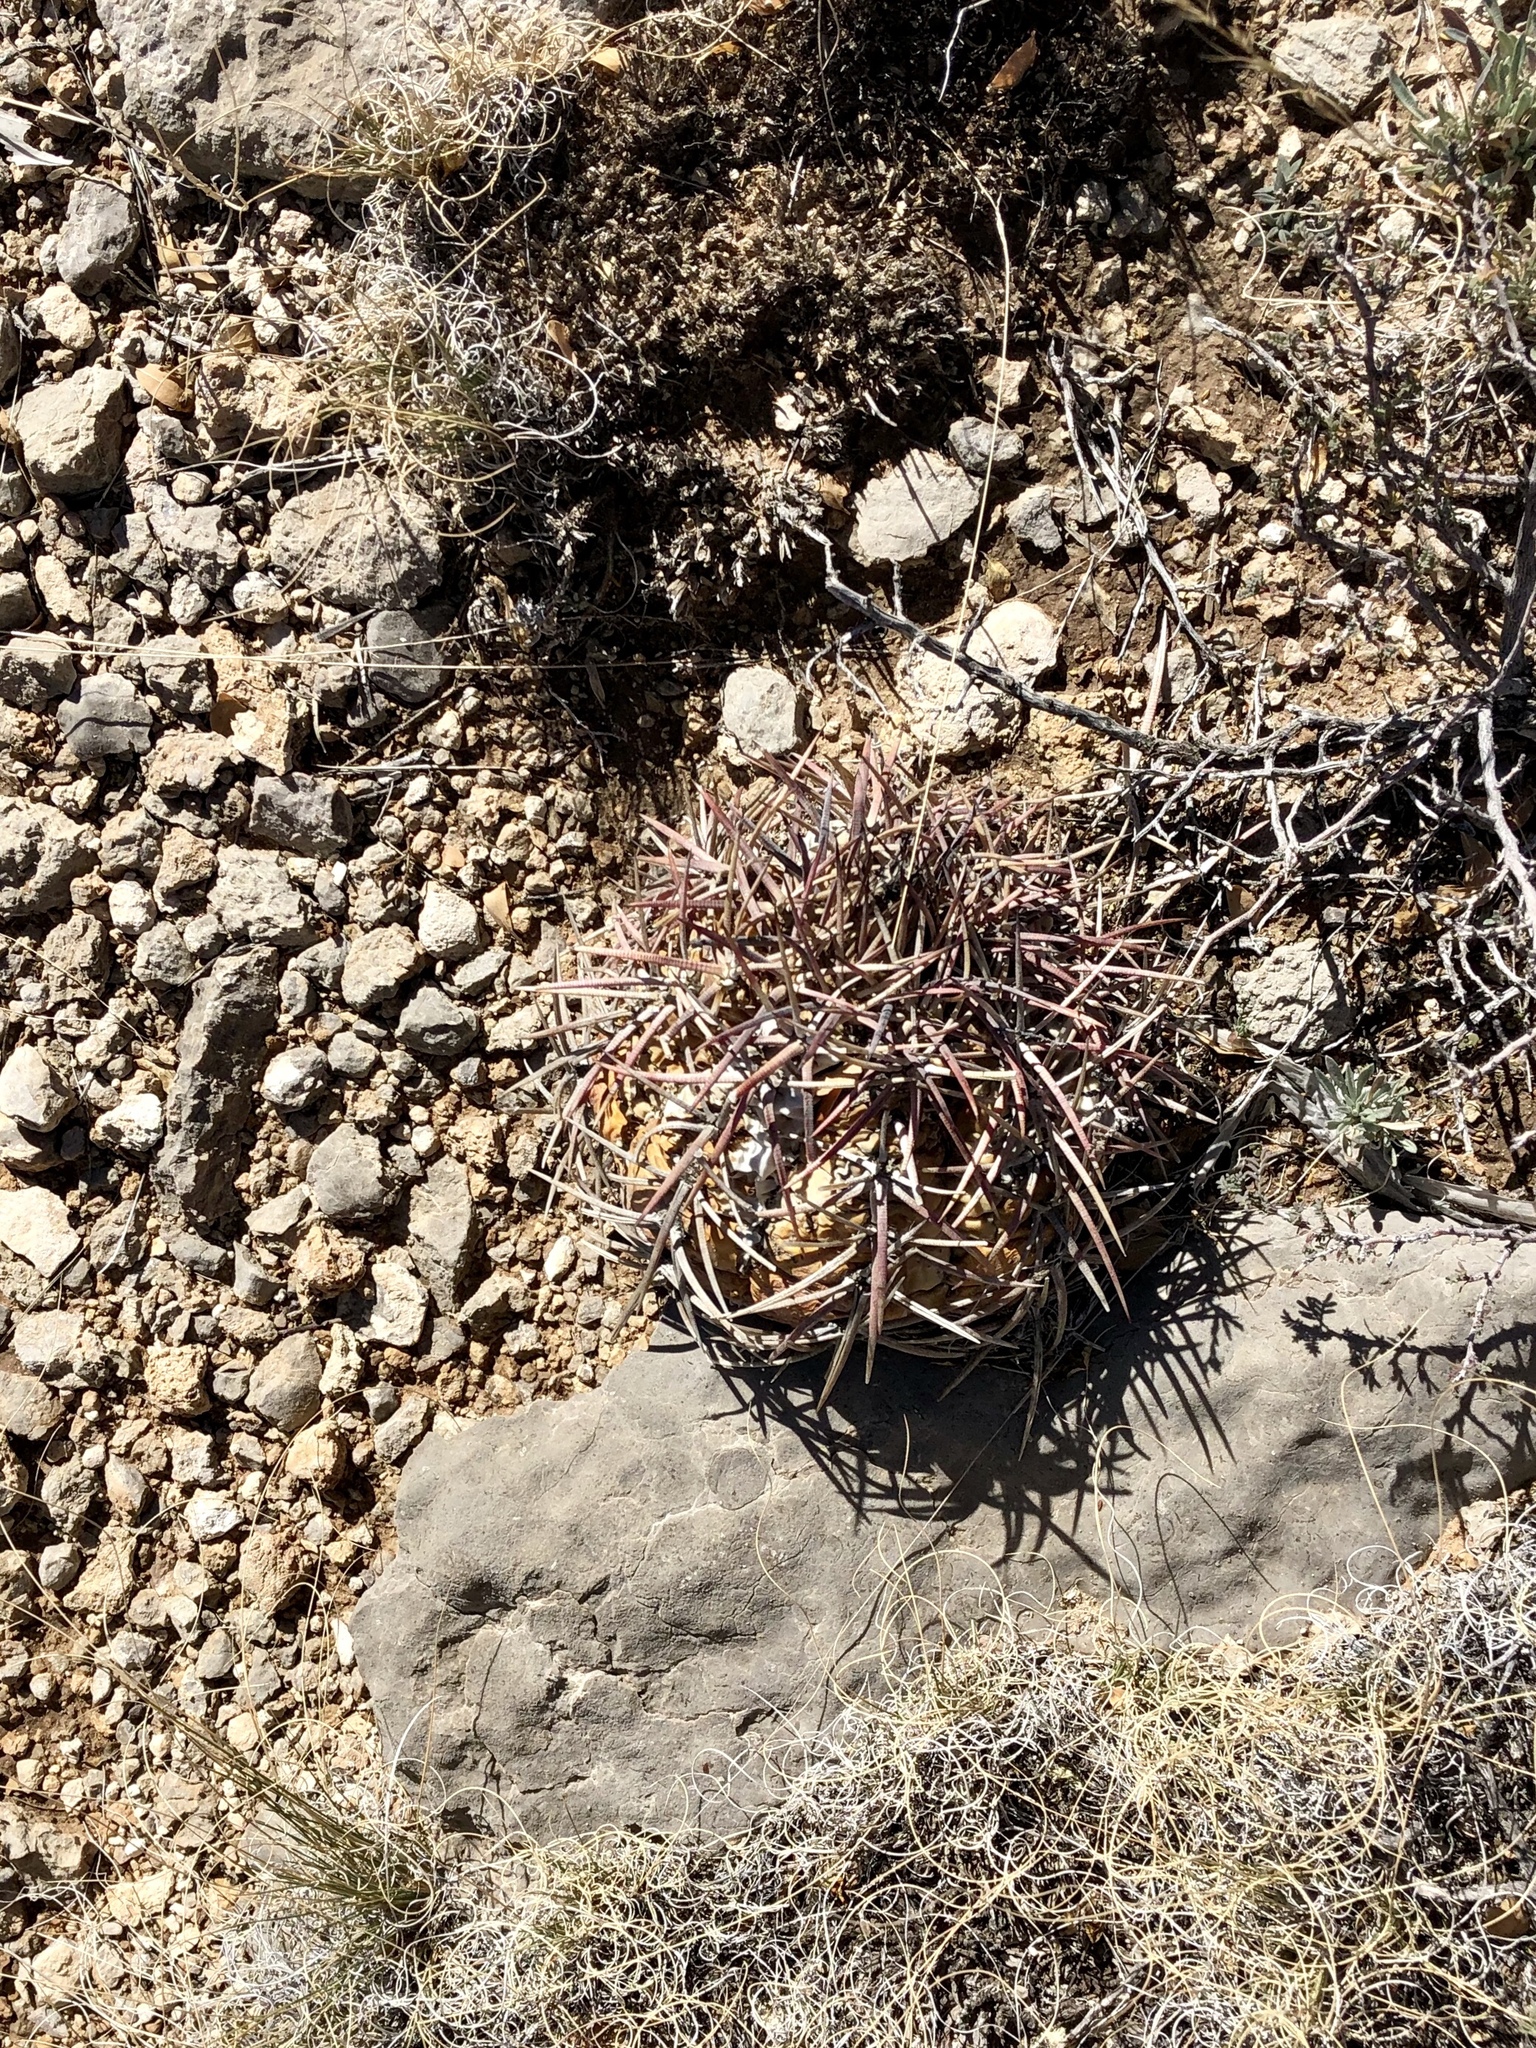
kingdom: Plantae
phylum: Tracheophyta
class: Magnoliopsida
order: Caryophyllales
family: Cactaceae
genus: Echinocactus
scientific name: Echinocactus horizonthalonius
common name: Devilshead
